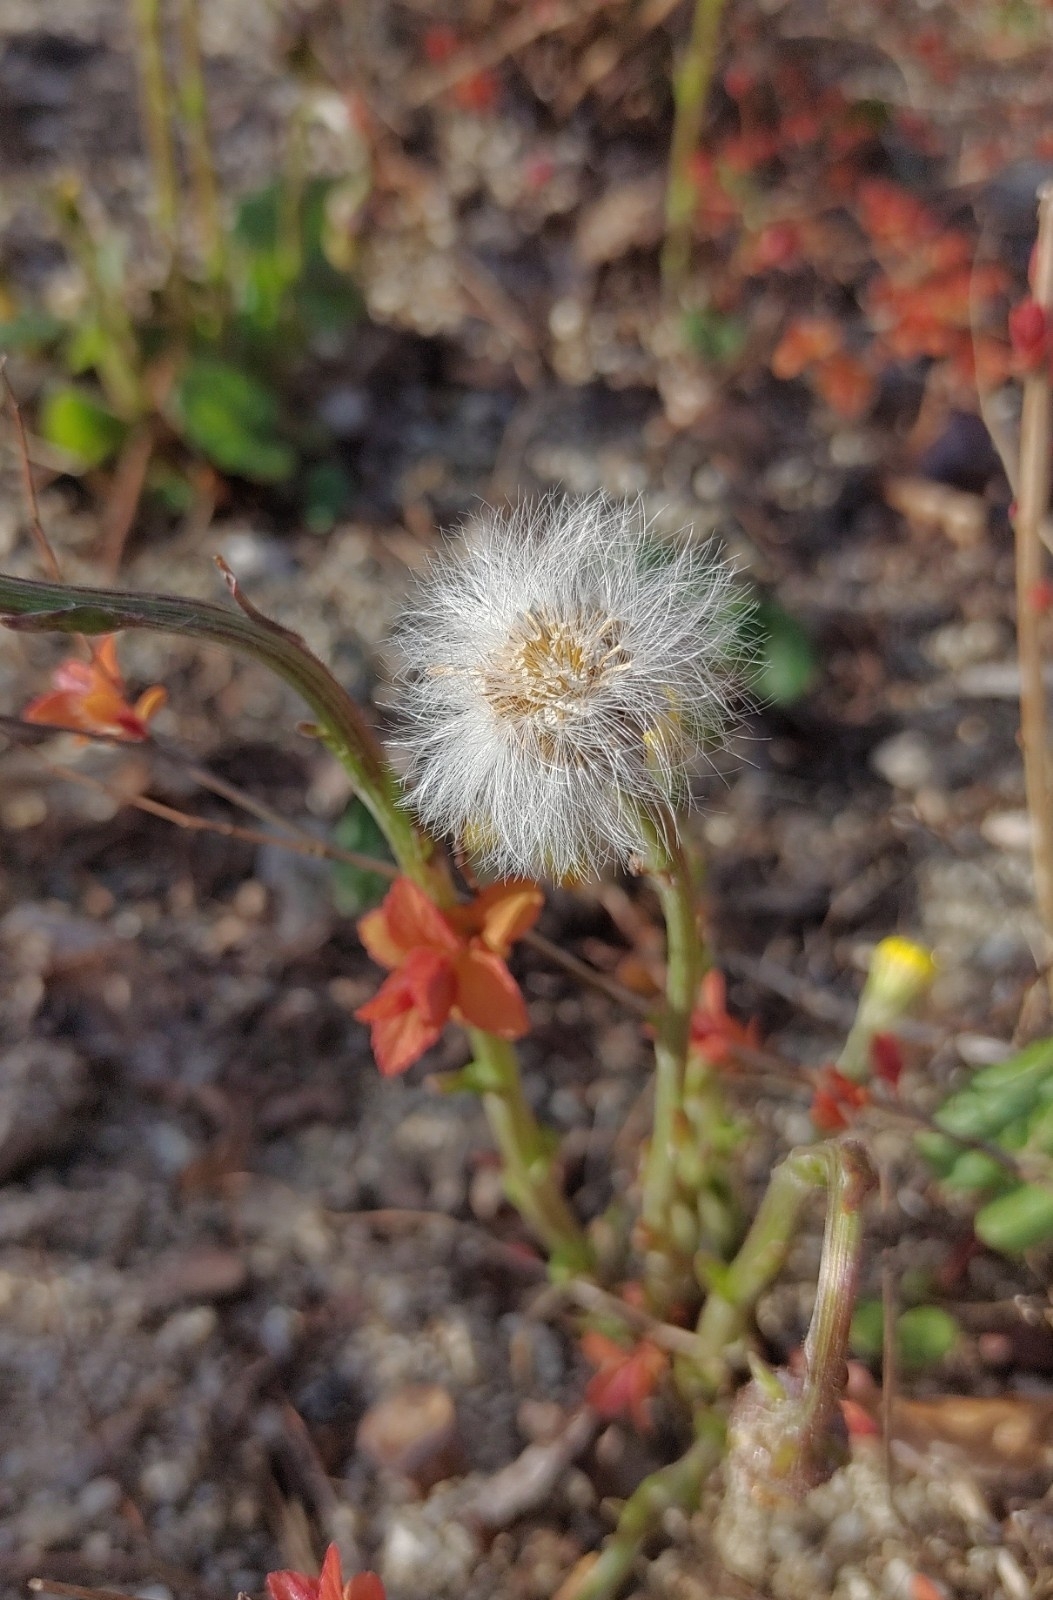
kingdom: Plantae
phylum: Tracheophyta
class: Magnoliopsida
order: Asterales
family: Asteraceae
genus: Tussilago
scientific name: Tussilago farfara
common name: Coltsfoot
